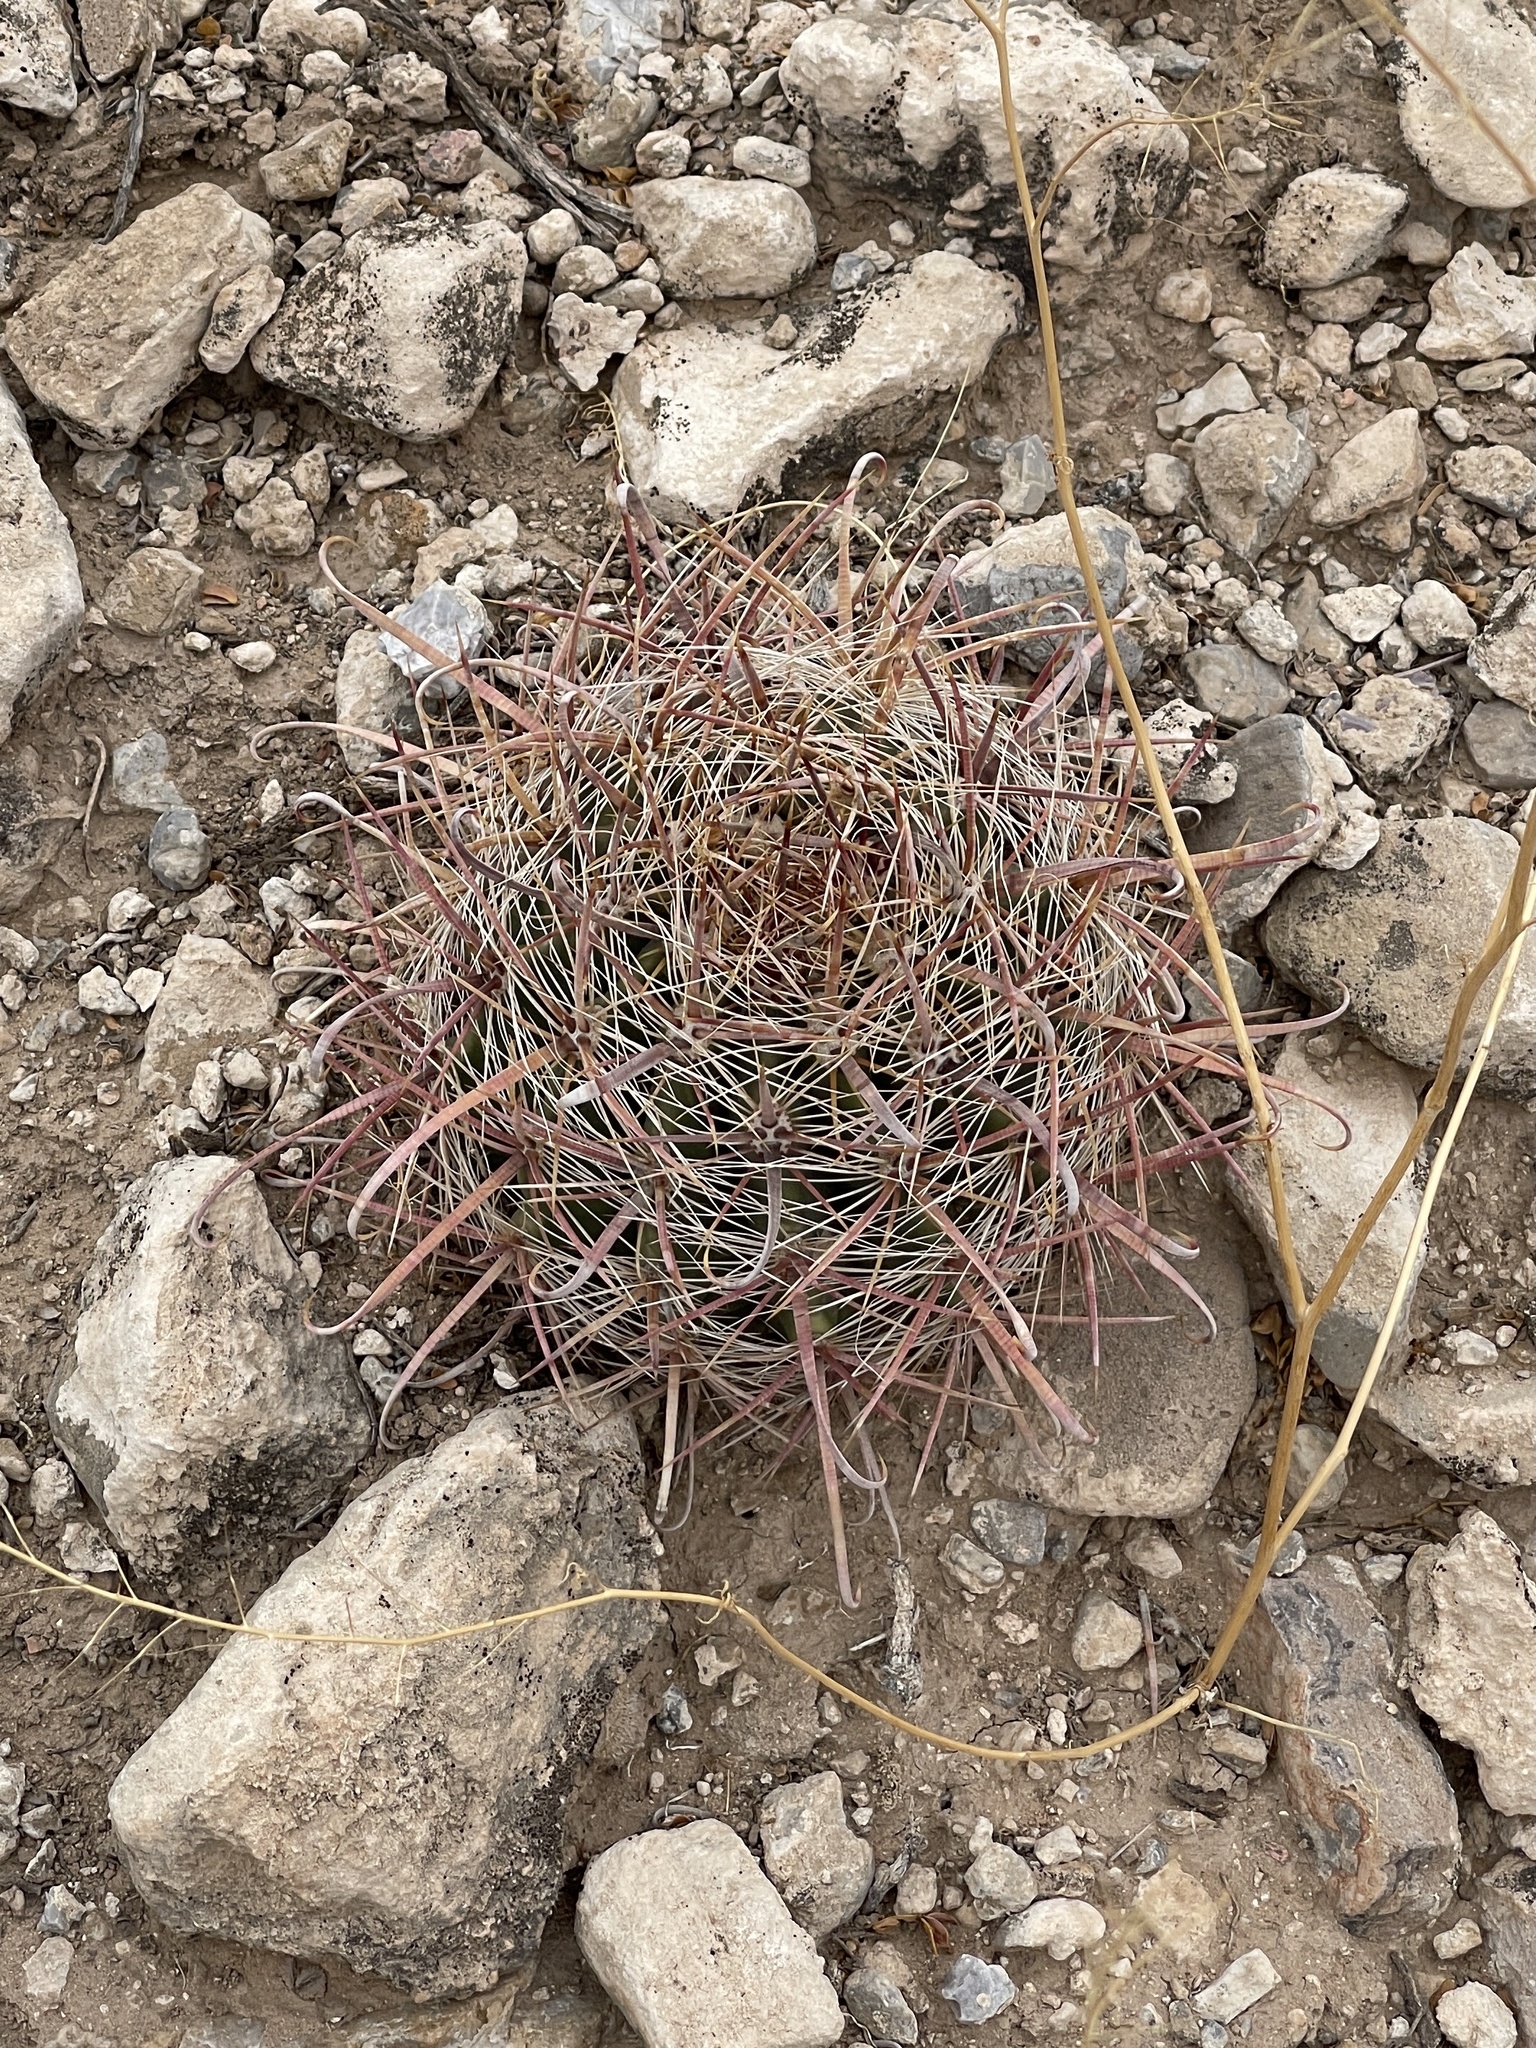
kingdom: Plantae
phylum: Tracheophyta
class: Magnoliopsida
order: Caryophyllales
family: Cactaceae
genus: Ferocactus
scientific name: Ferocactus wislizeni
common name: Candy barrel cactus
